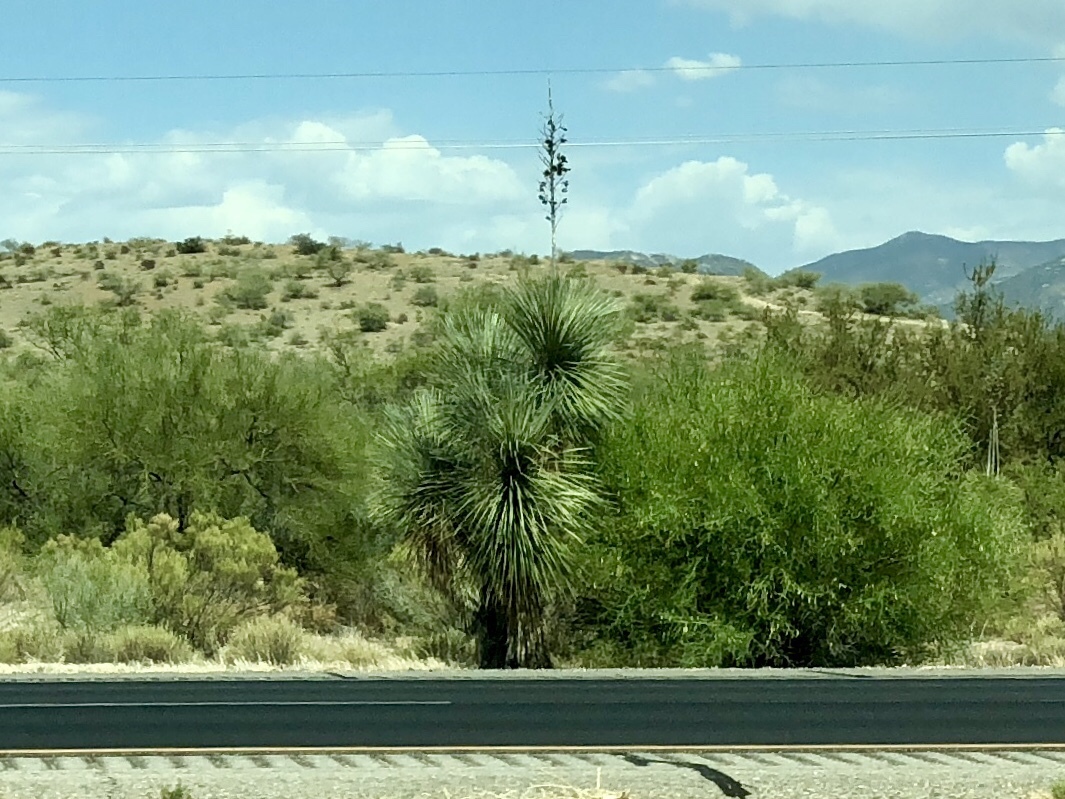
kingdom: Plantae
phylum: Tracheophyta
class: Liliopsida
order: Asparagales
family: Asparagaceae
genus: Yucca
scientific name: Yucca elata
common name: Palmella
